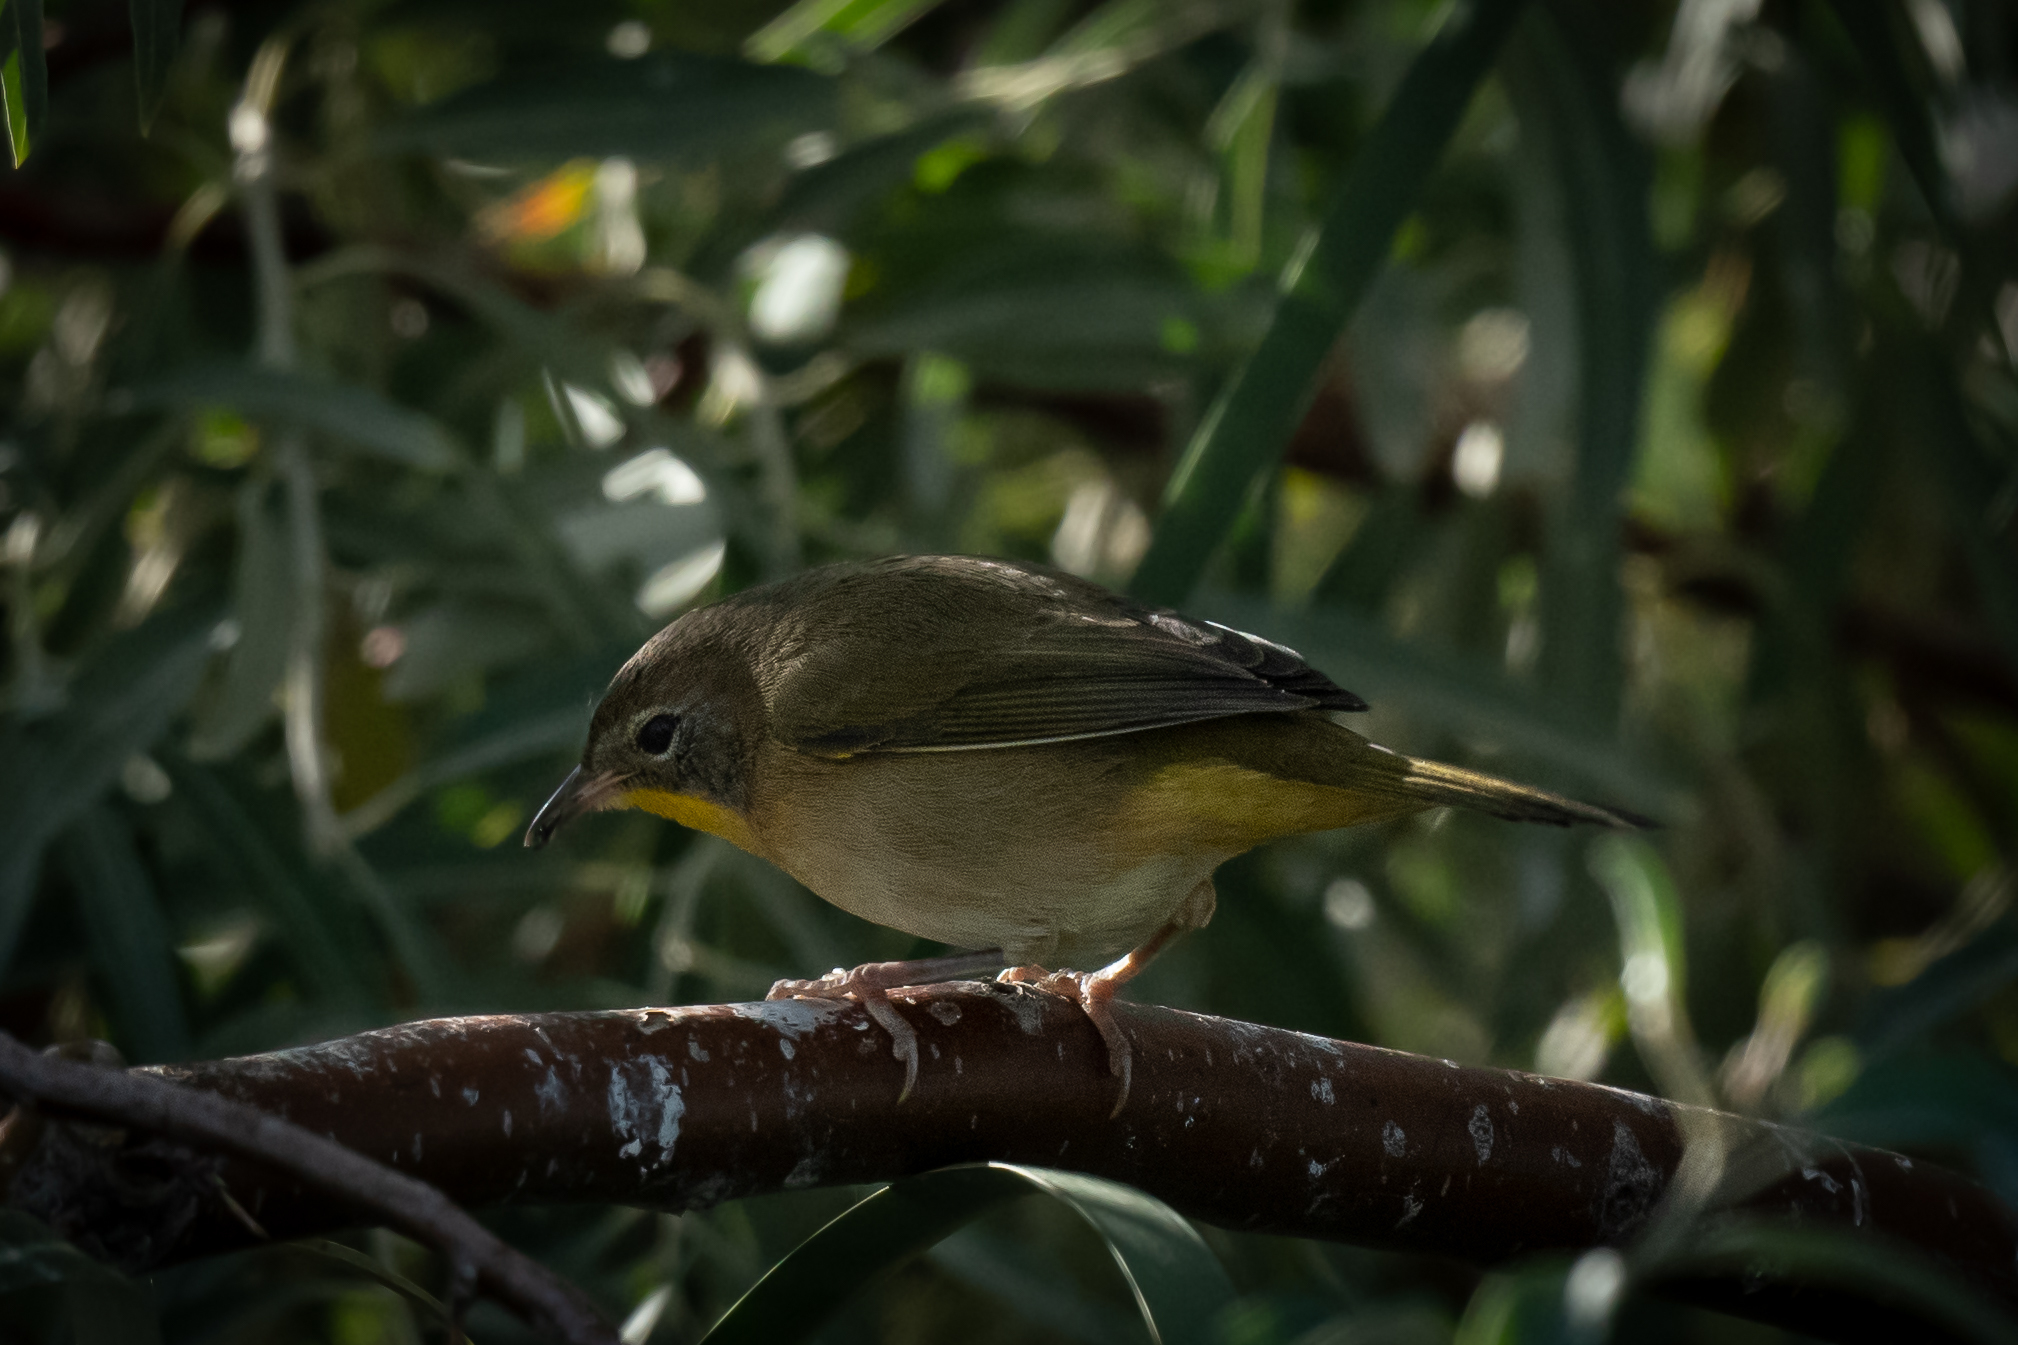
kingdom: Animalia
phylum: Chordata
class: Aves
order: Passeriformes
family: Parulidae
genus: Geothlypis
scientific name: Geothlypis trichas
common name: Common yellowthroat
